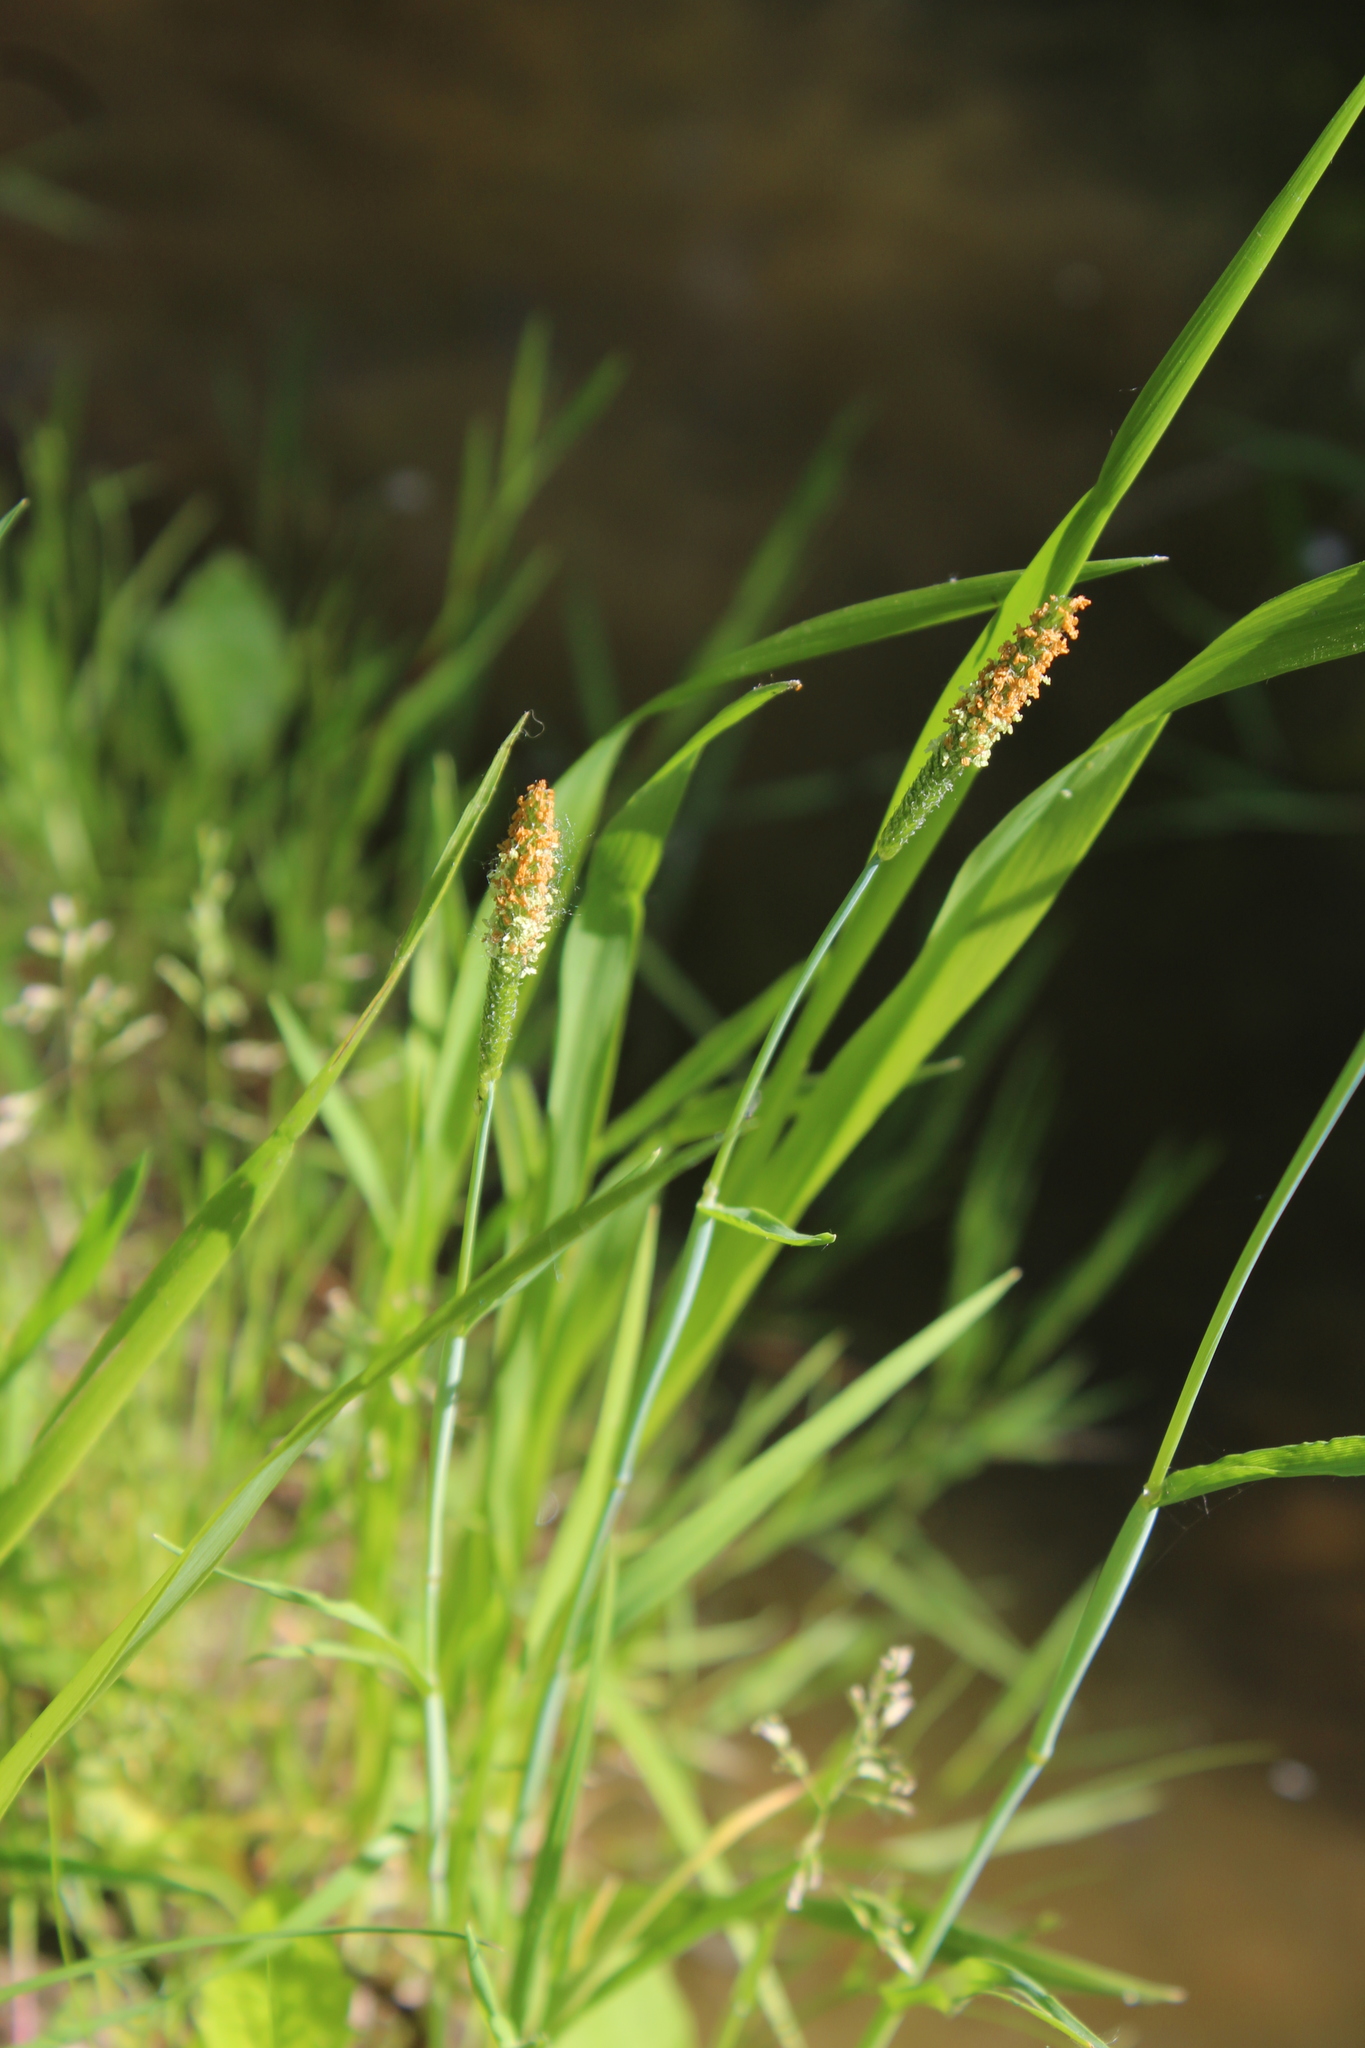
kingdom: Plantae
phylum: Tracheophyta
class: Liliopsida
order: Poales
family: Poaceae
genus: Alopecurus
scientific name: Alopecurus aequalis
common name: Orange foxtail
